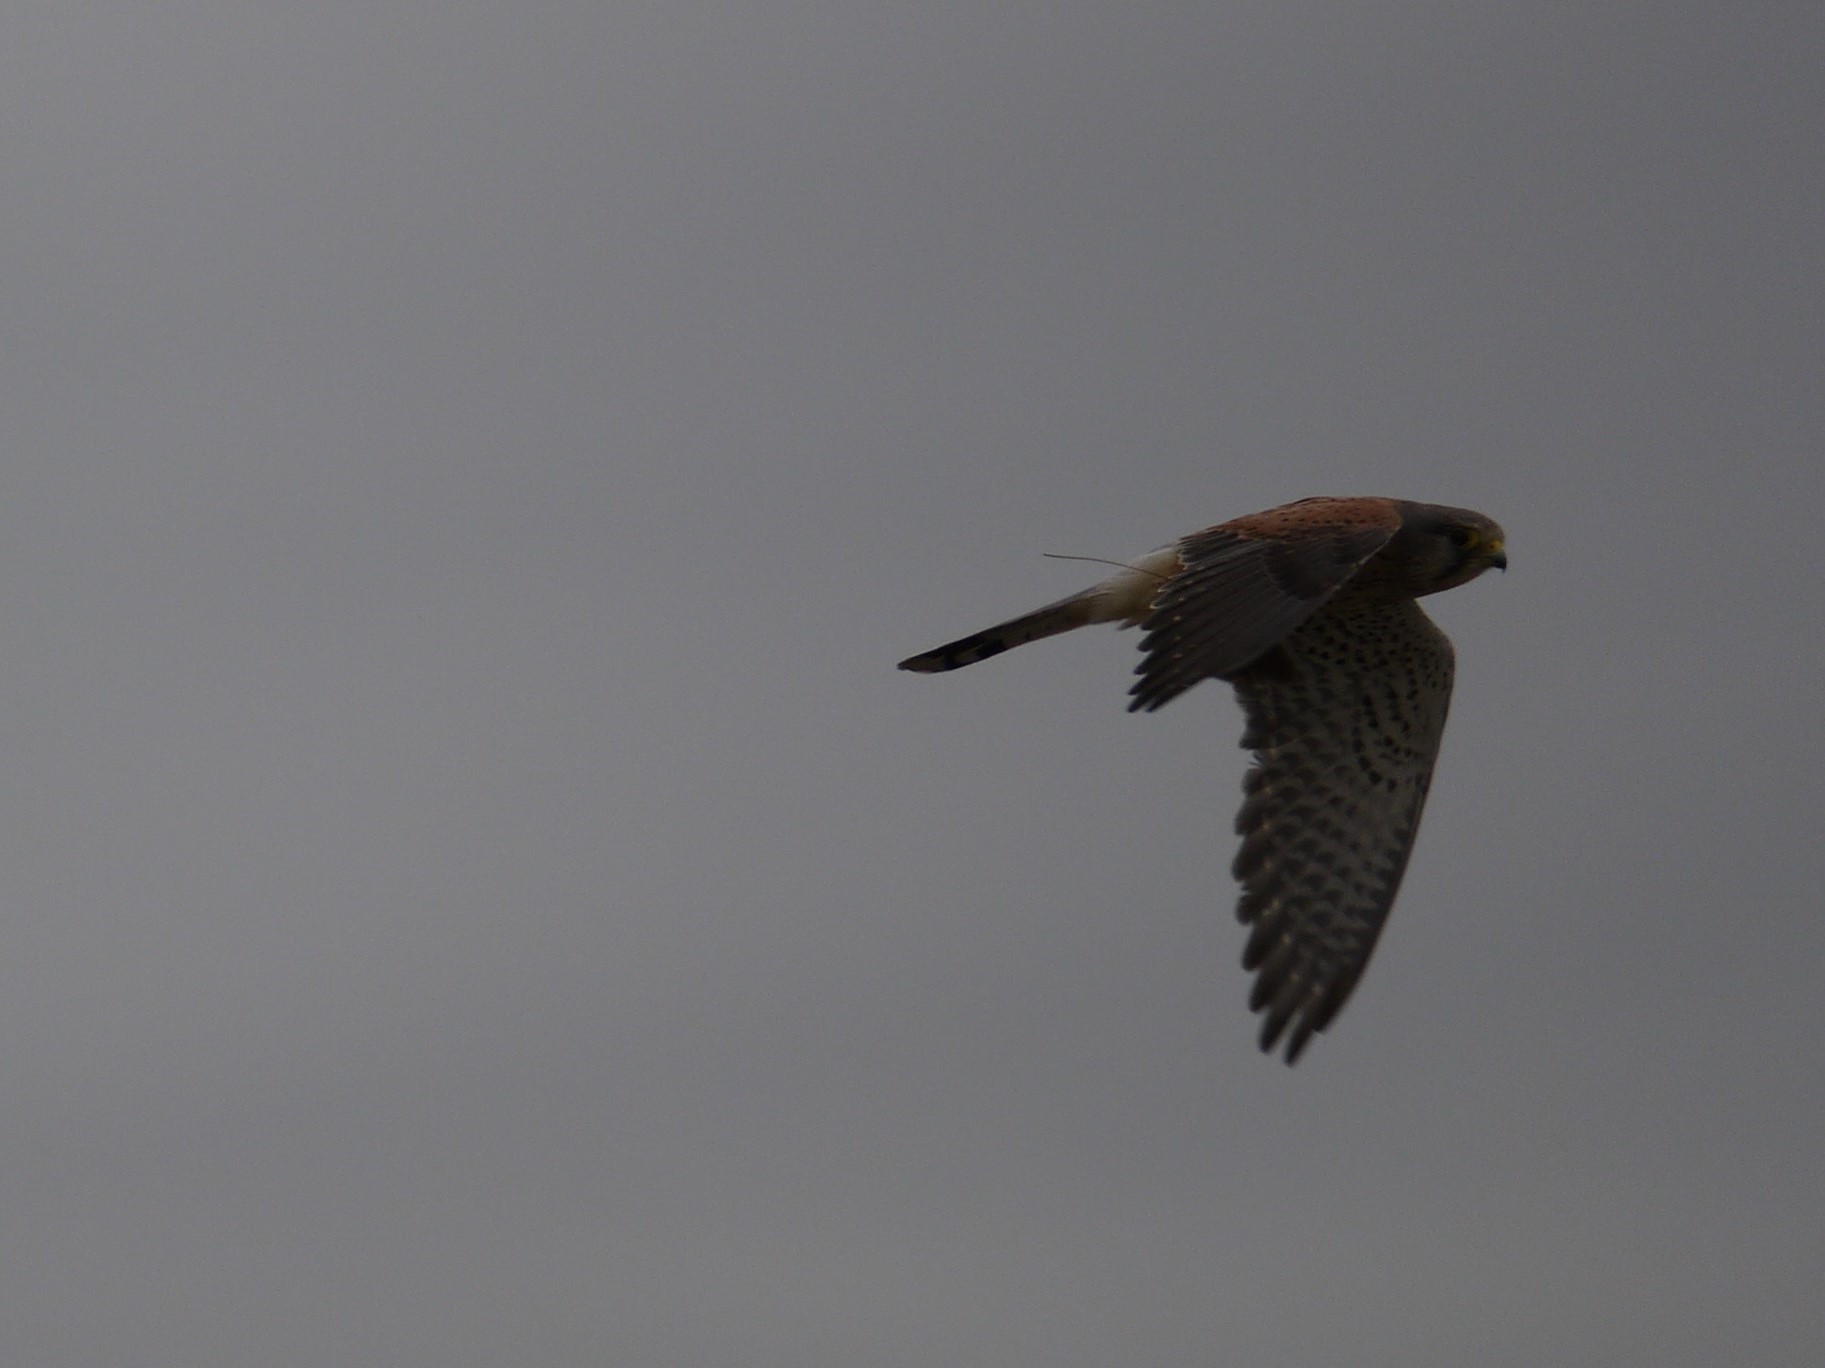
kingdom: Animalia
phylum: Chordata
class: Aves
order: Falconiformes
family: Falconidae
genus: Falco
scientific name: Falco tinnunculus
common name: Common kestrel
